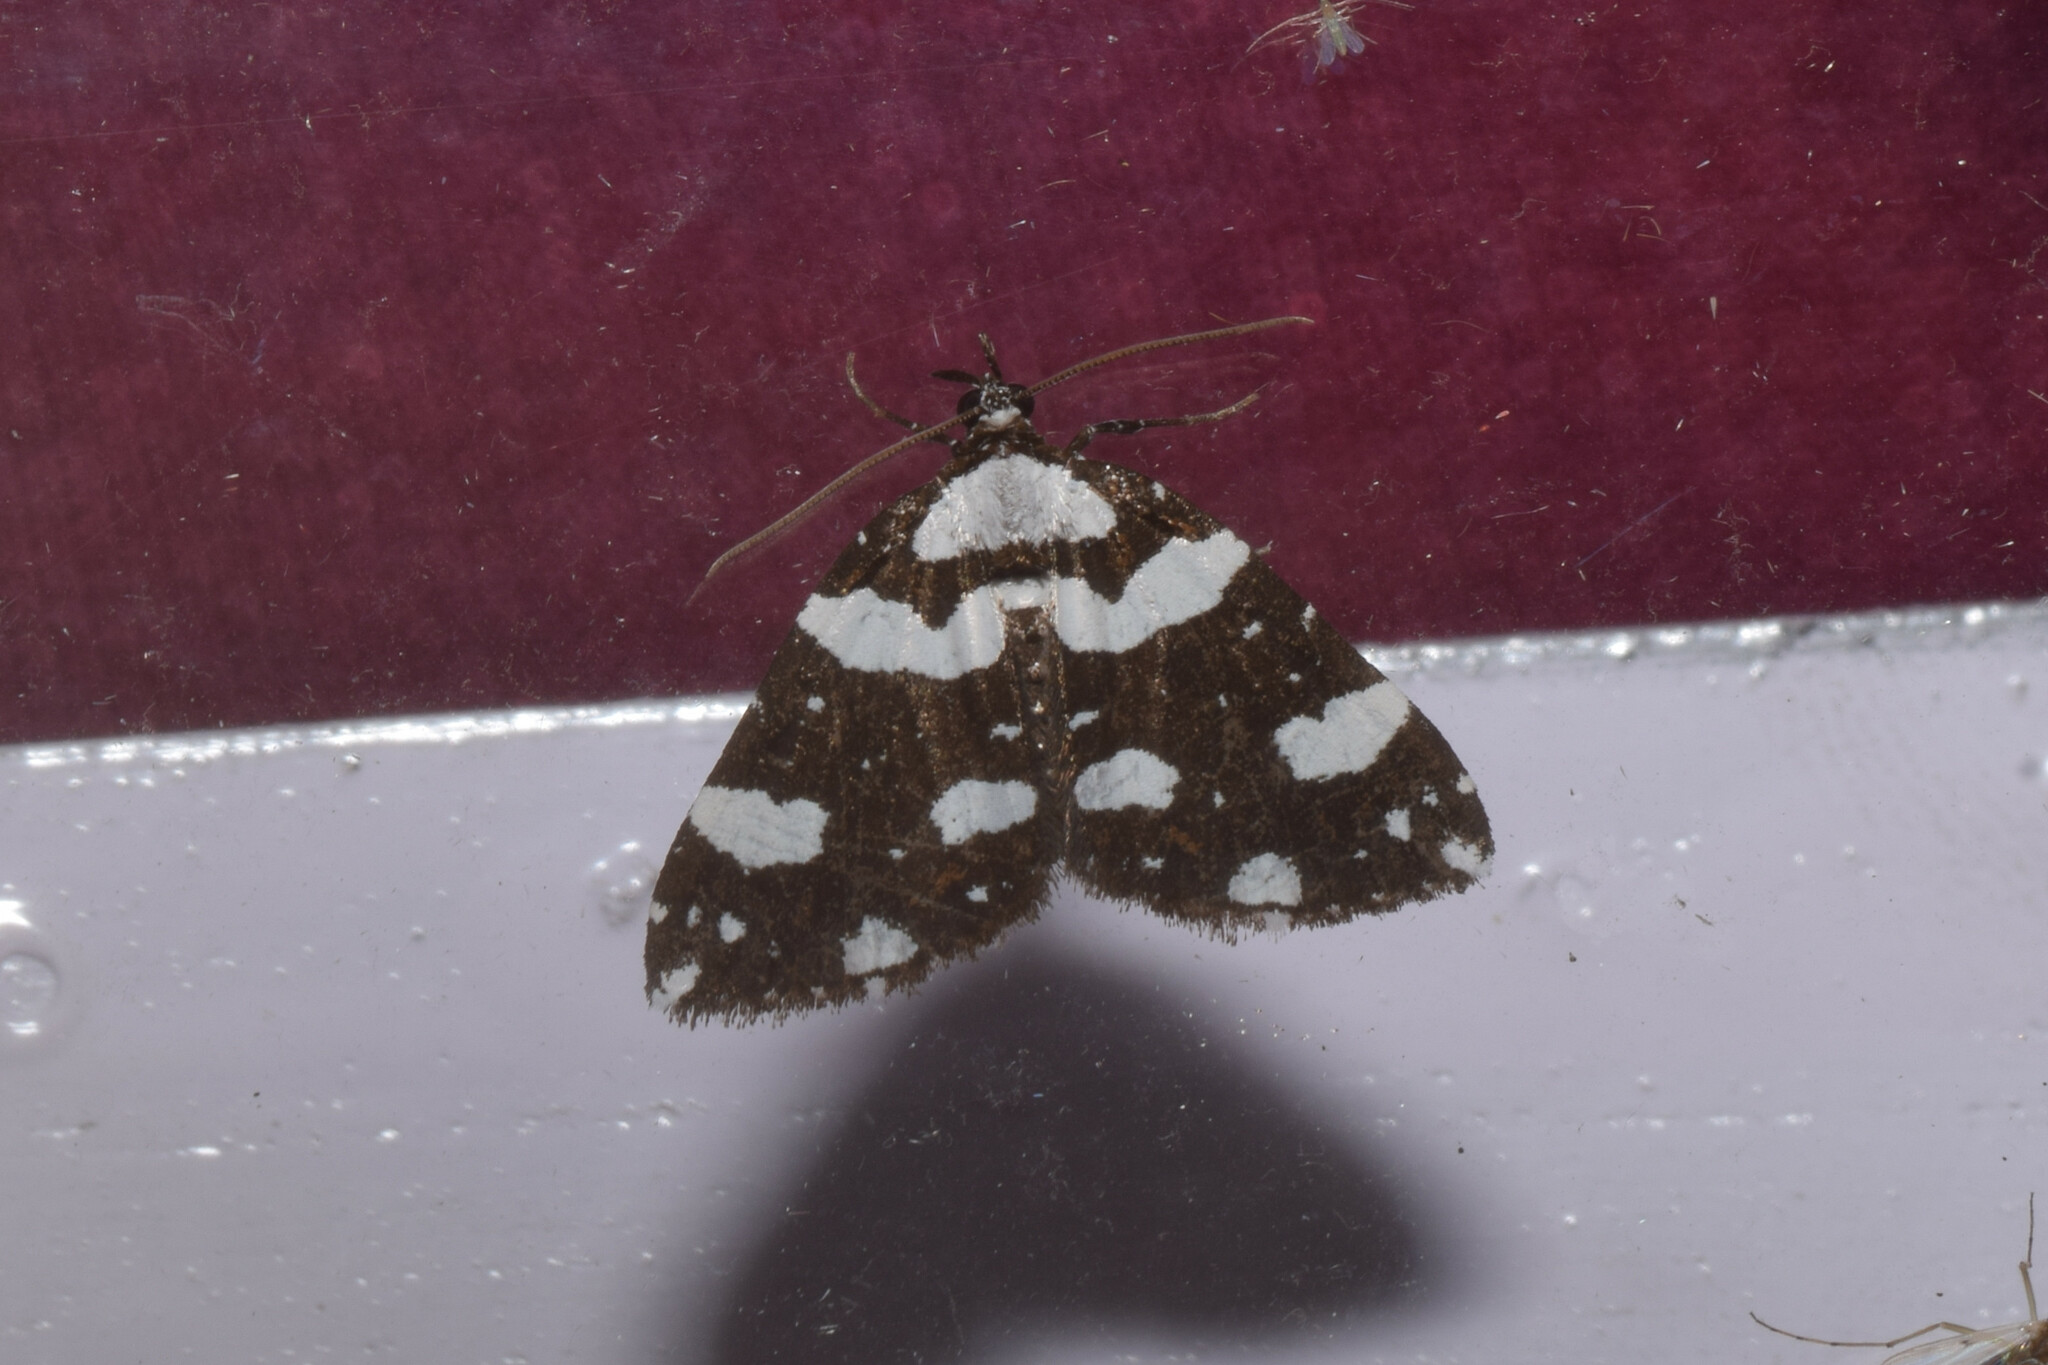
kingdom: Animalia
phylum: Arthropoda
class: Insecta
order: Lepidoptera
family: Geometridae
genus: Perizoma
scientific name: Perizoma maculata
